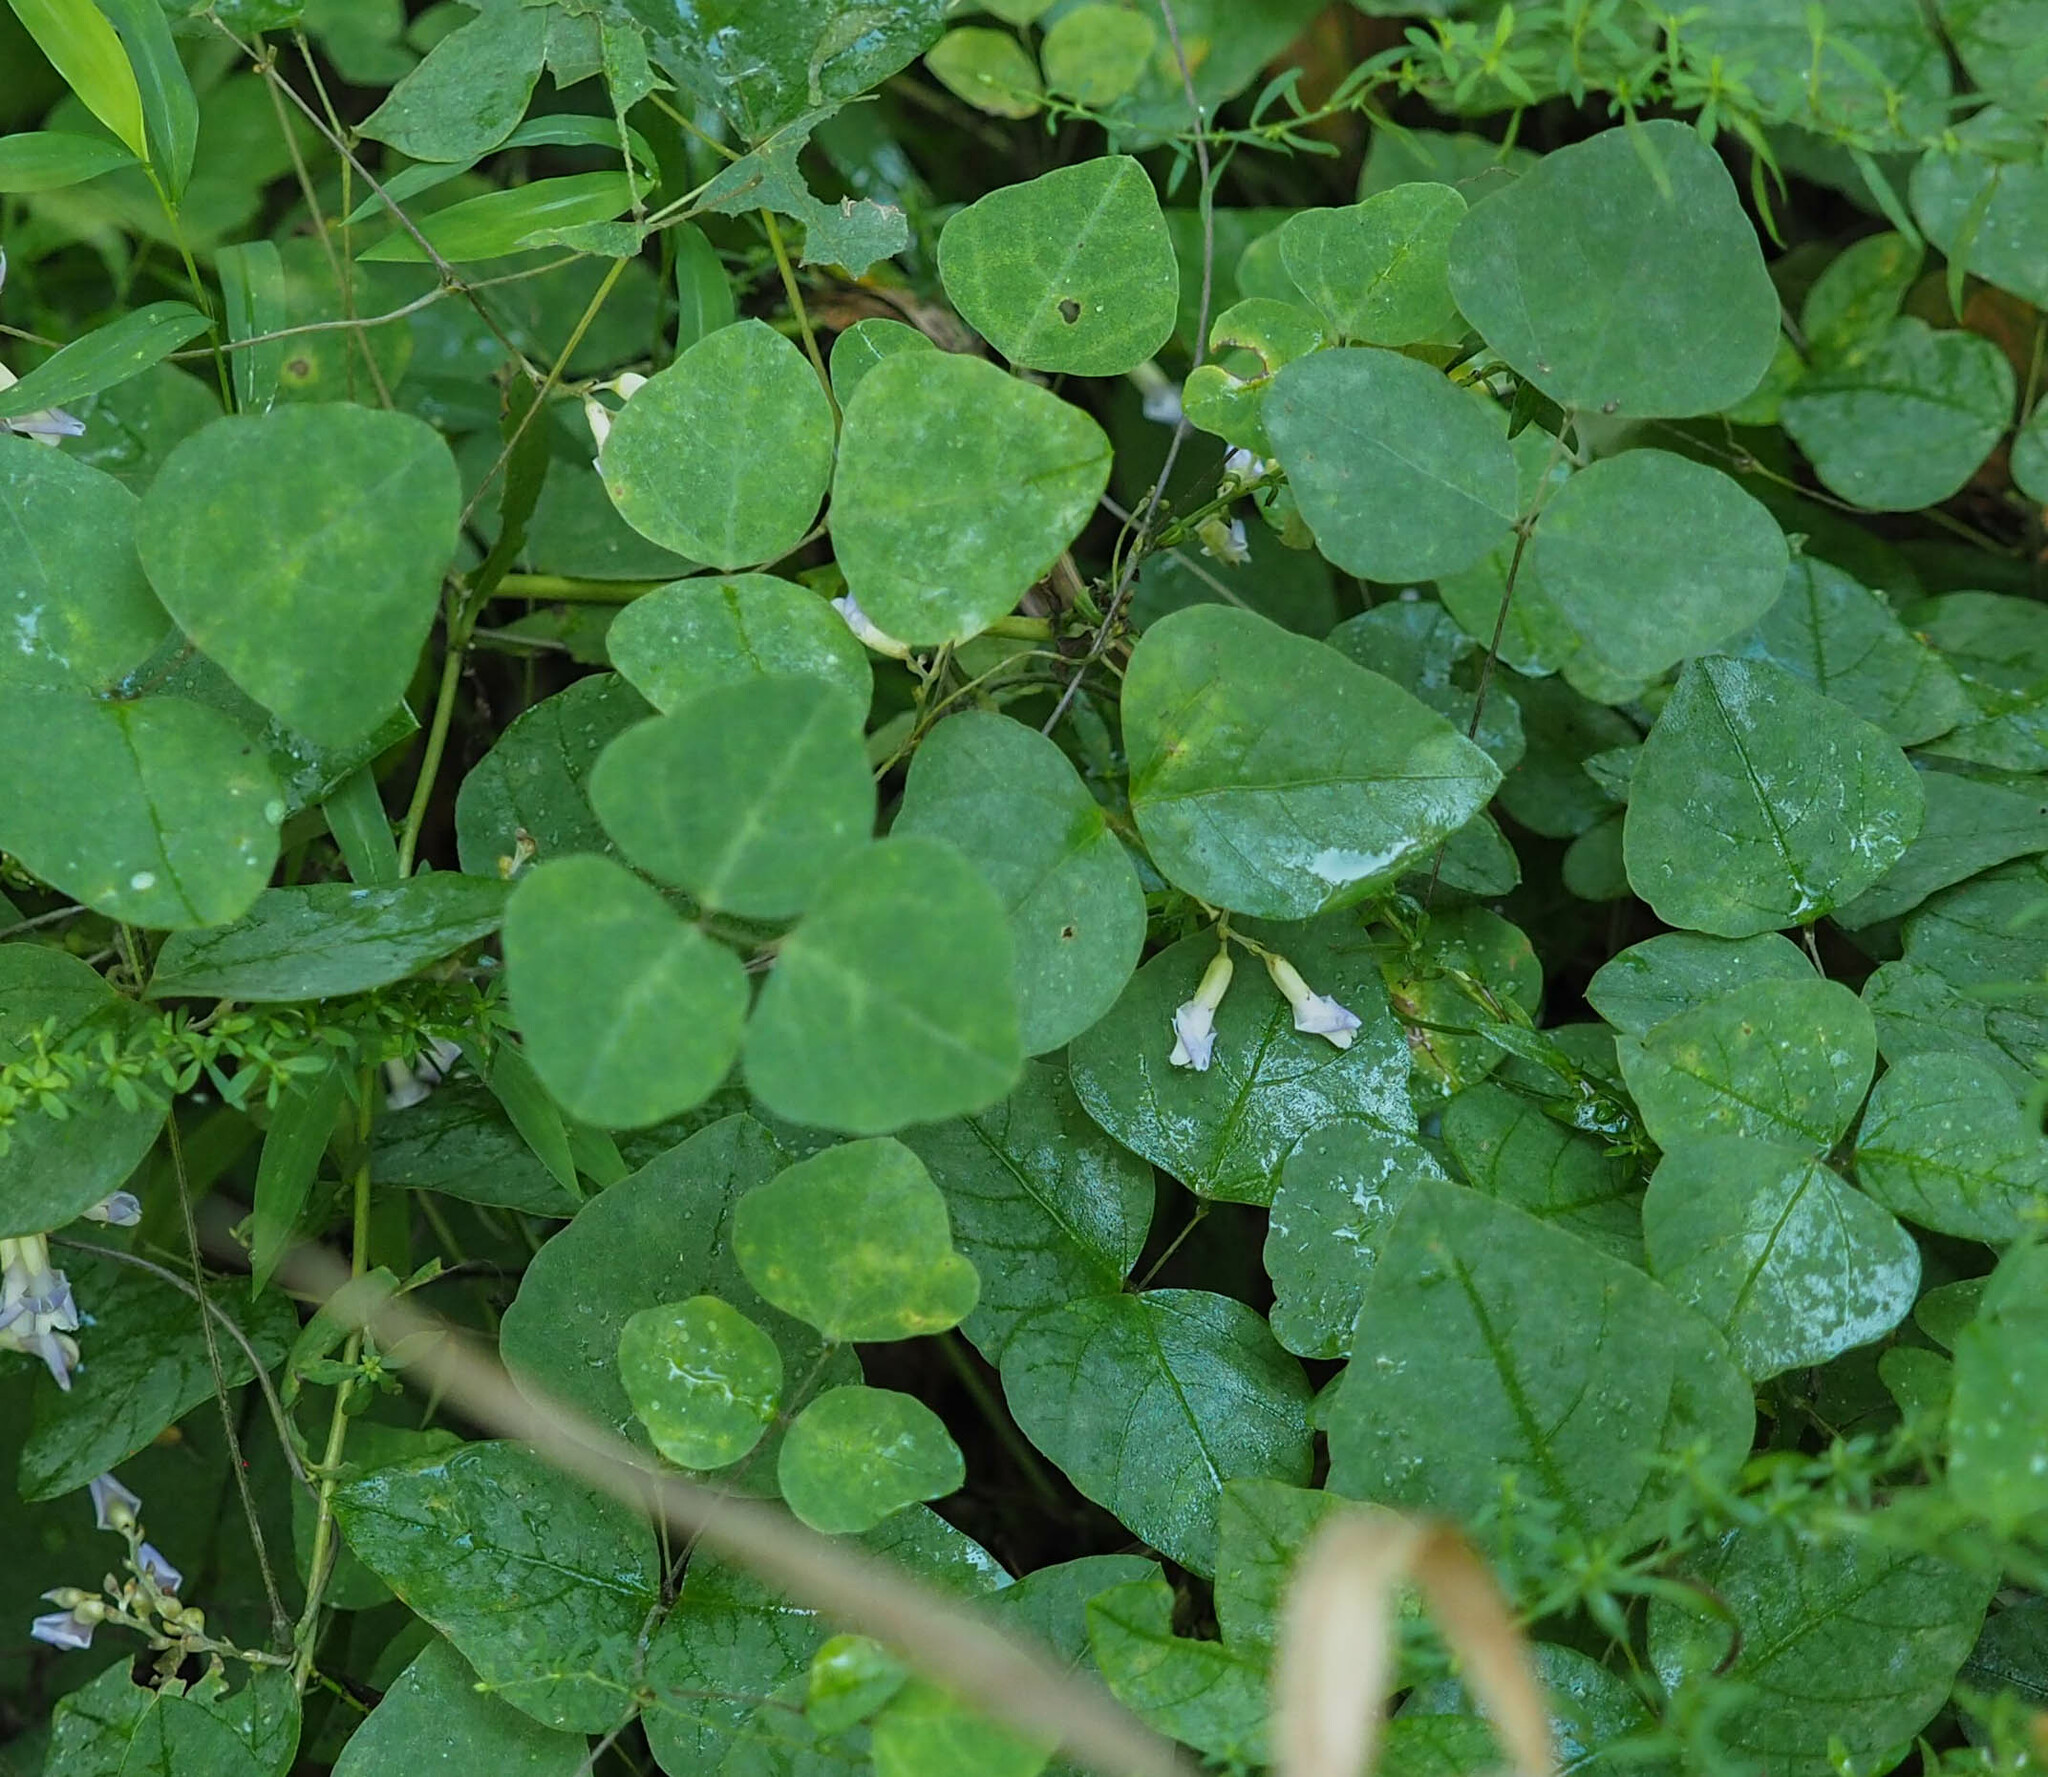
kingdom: Plantae
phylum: Tracheophyta
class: Magnoliopsida
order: Fabales
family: Fabaceae
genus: Amphicarpaea
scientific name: Amphicarpaea bracteata
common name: American hog peanut
